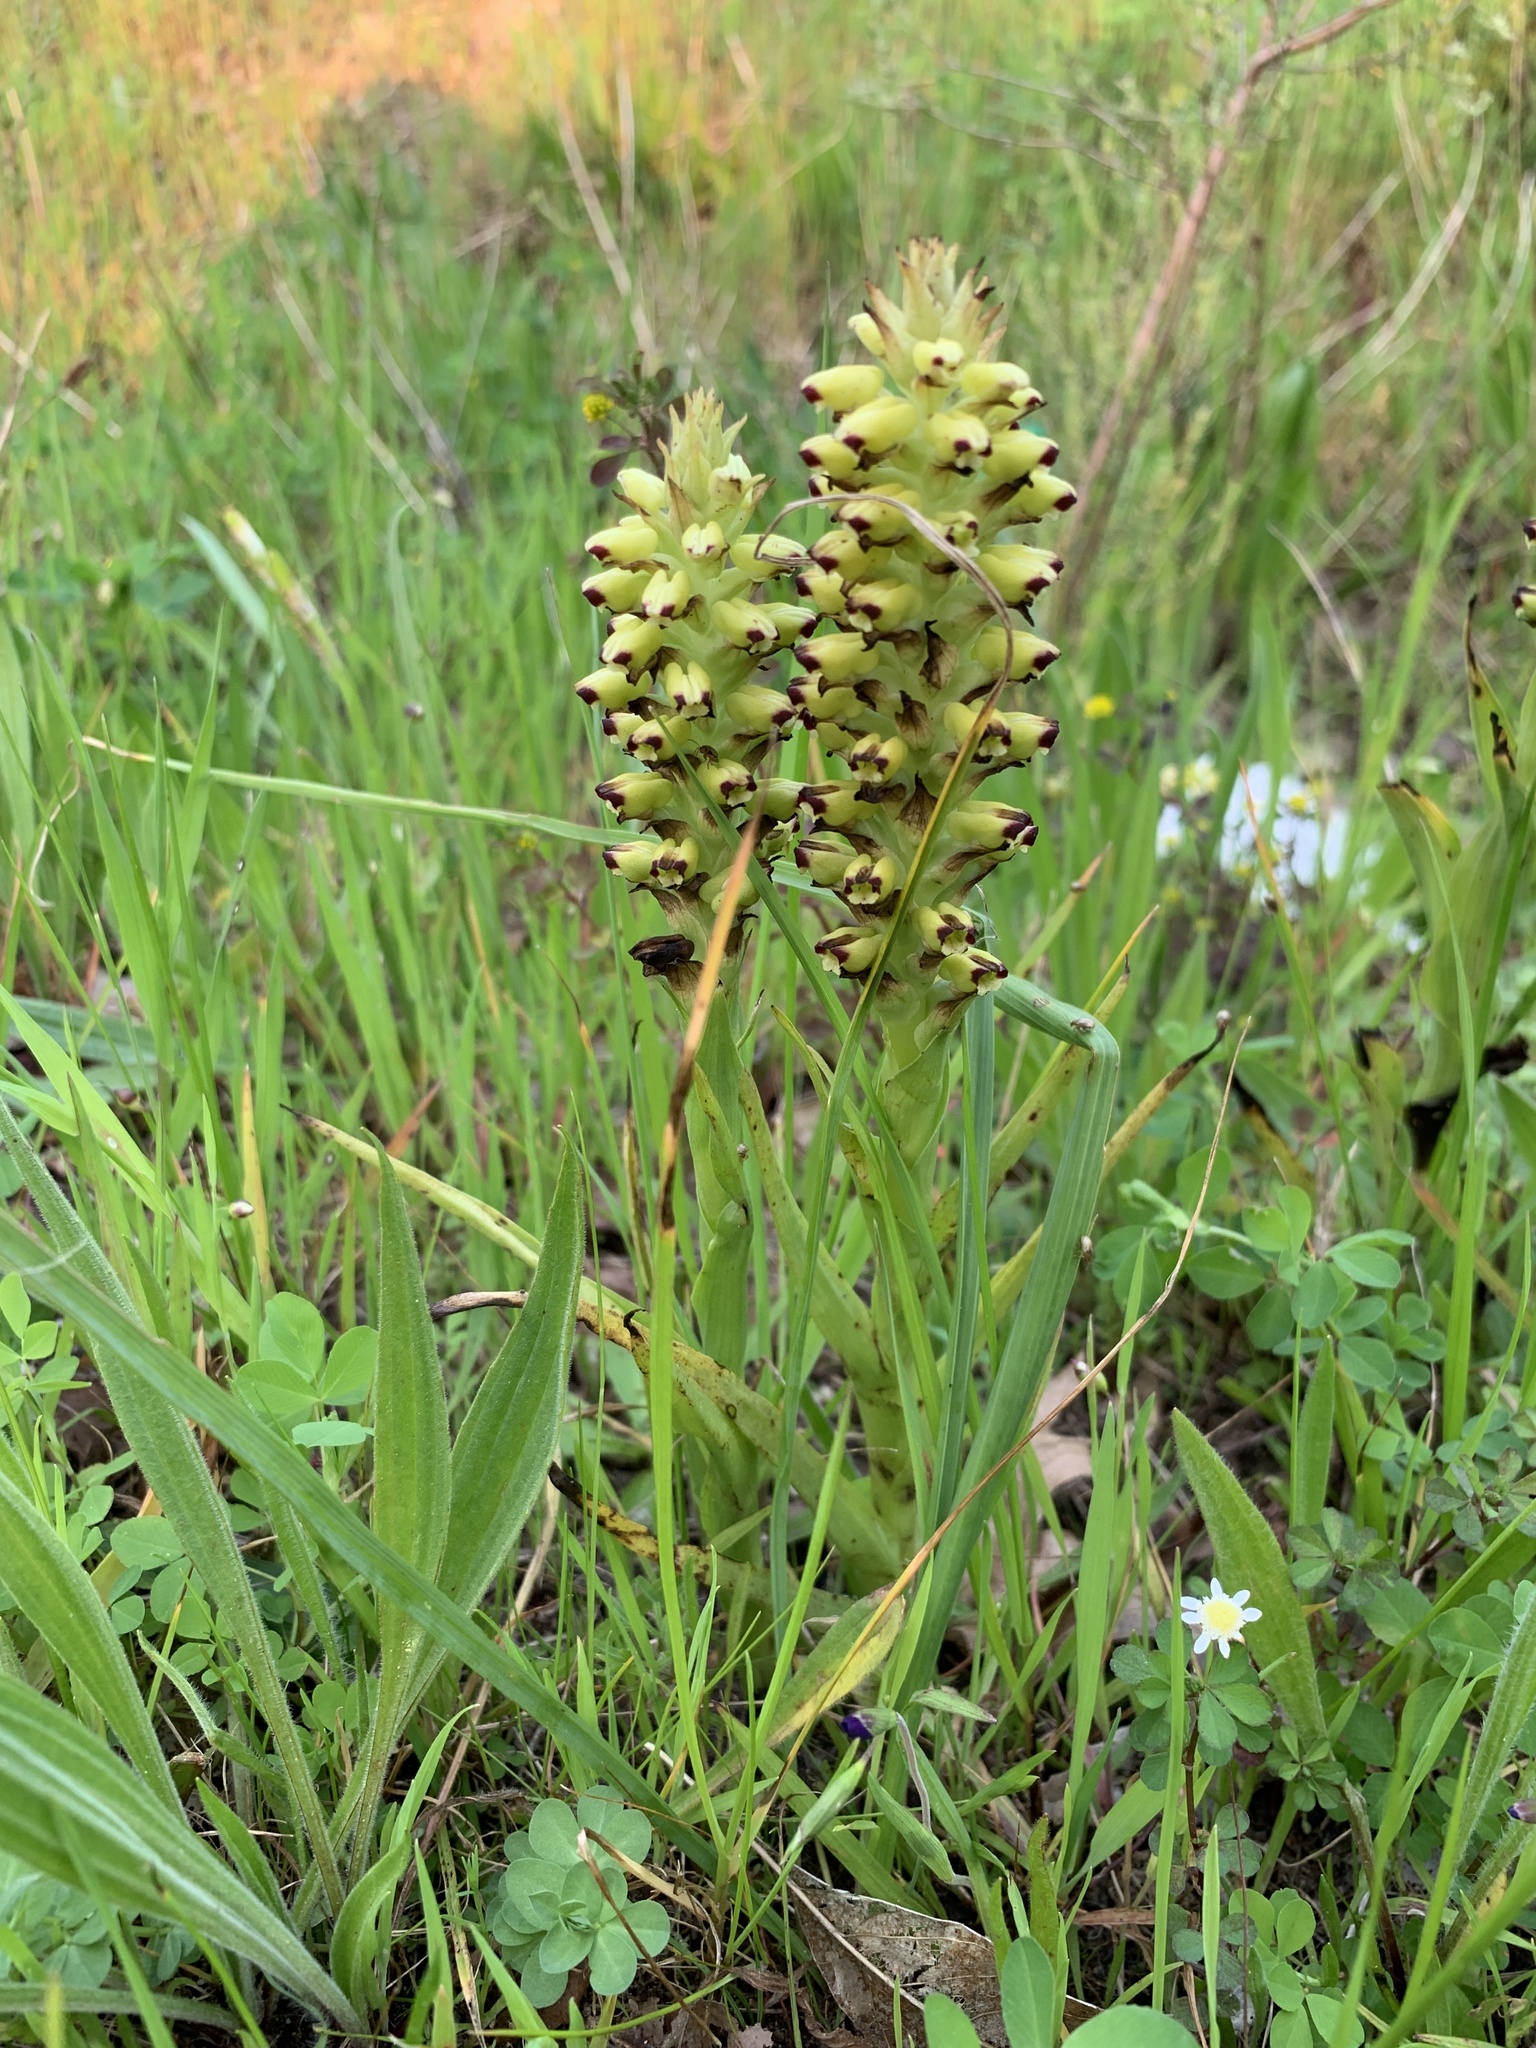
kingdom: Plantae
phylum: Tracheophyta
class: Liliopsida
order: Asparagales
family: Orchidaceae
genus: Corycium
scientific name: Corycium orobanchoides
